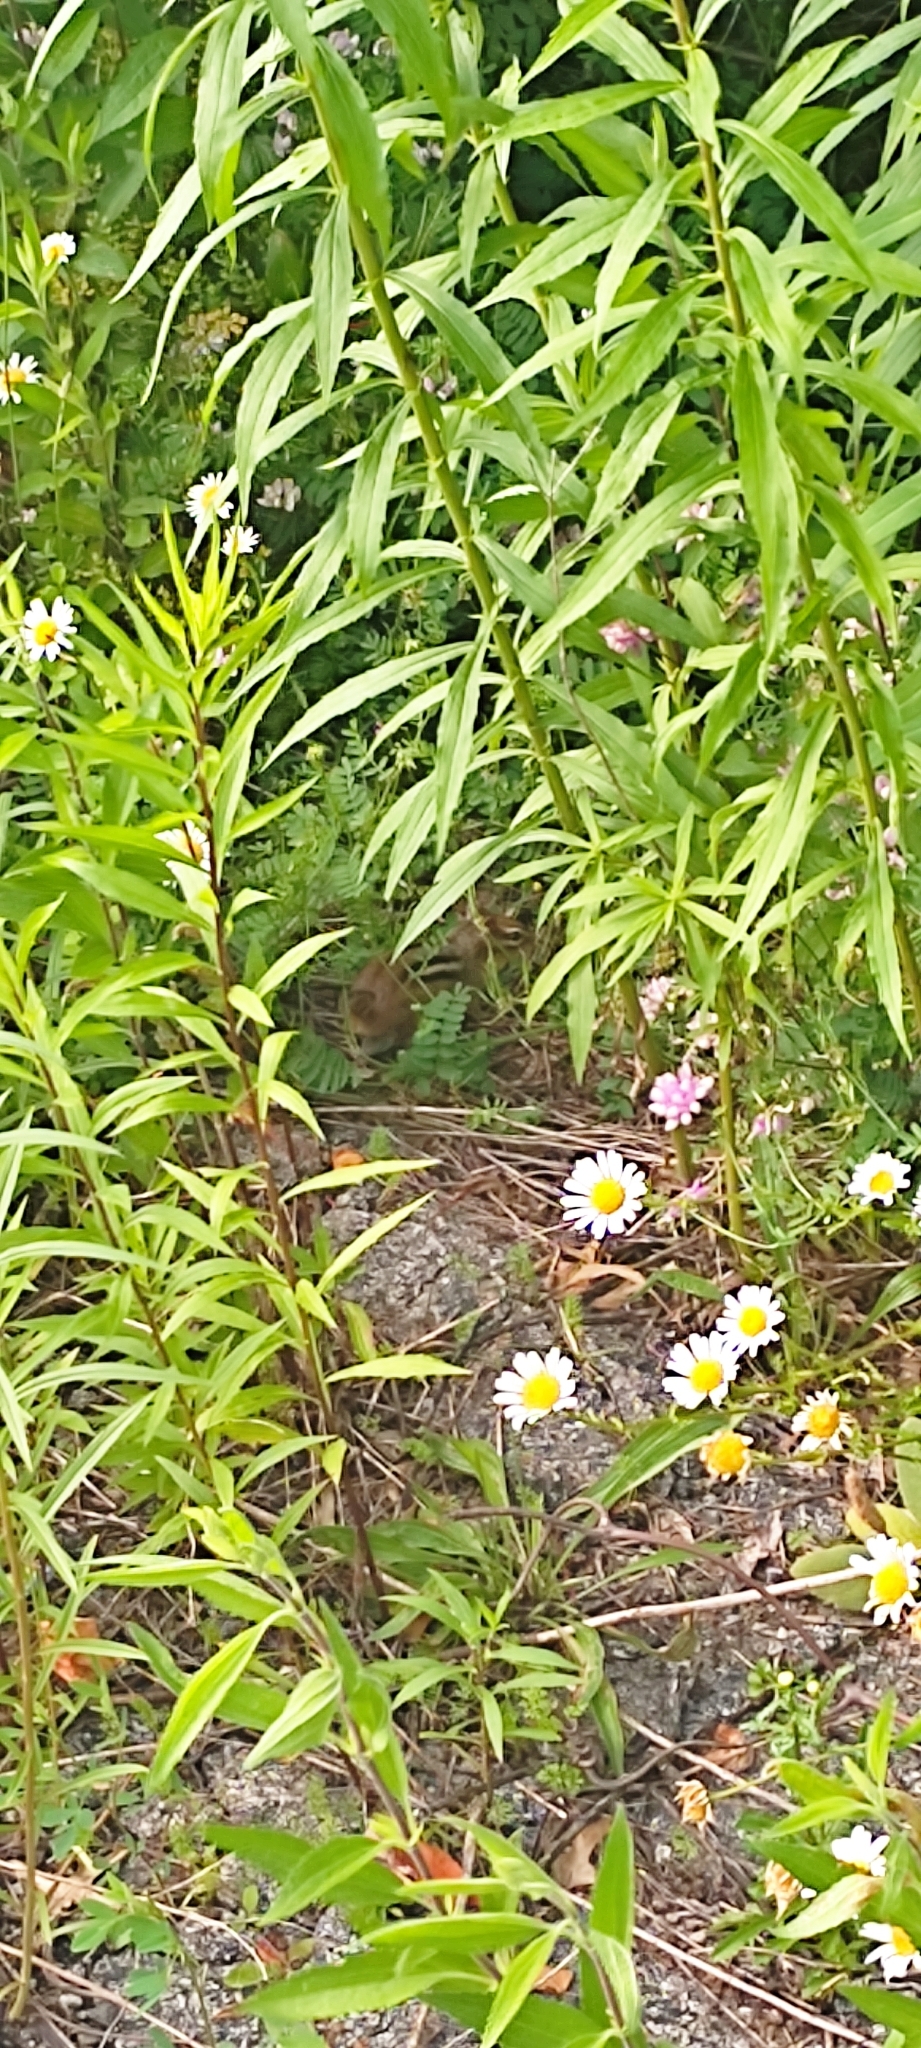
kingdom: Animalia
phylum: Chordata
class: Mammalia
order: Rodentia
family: Sciuridae
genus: Tamias
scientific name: Tamias striatus
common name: Eastern chipmunk
